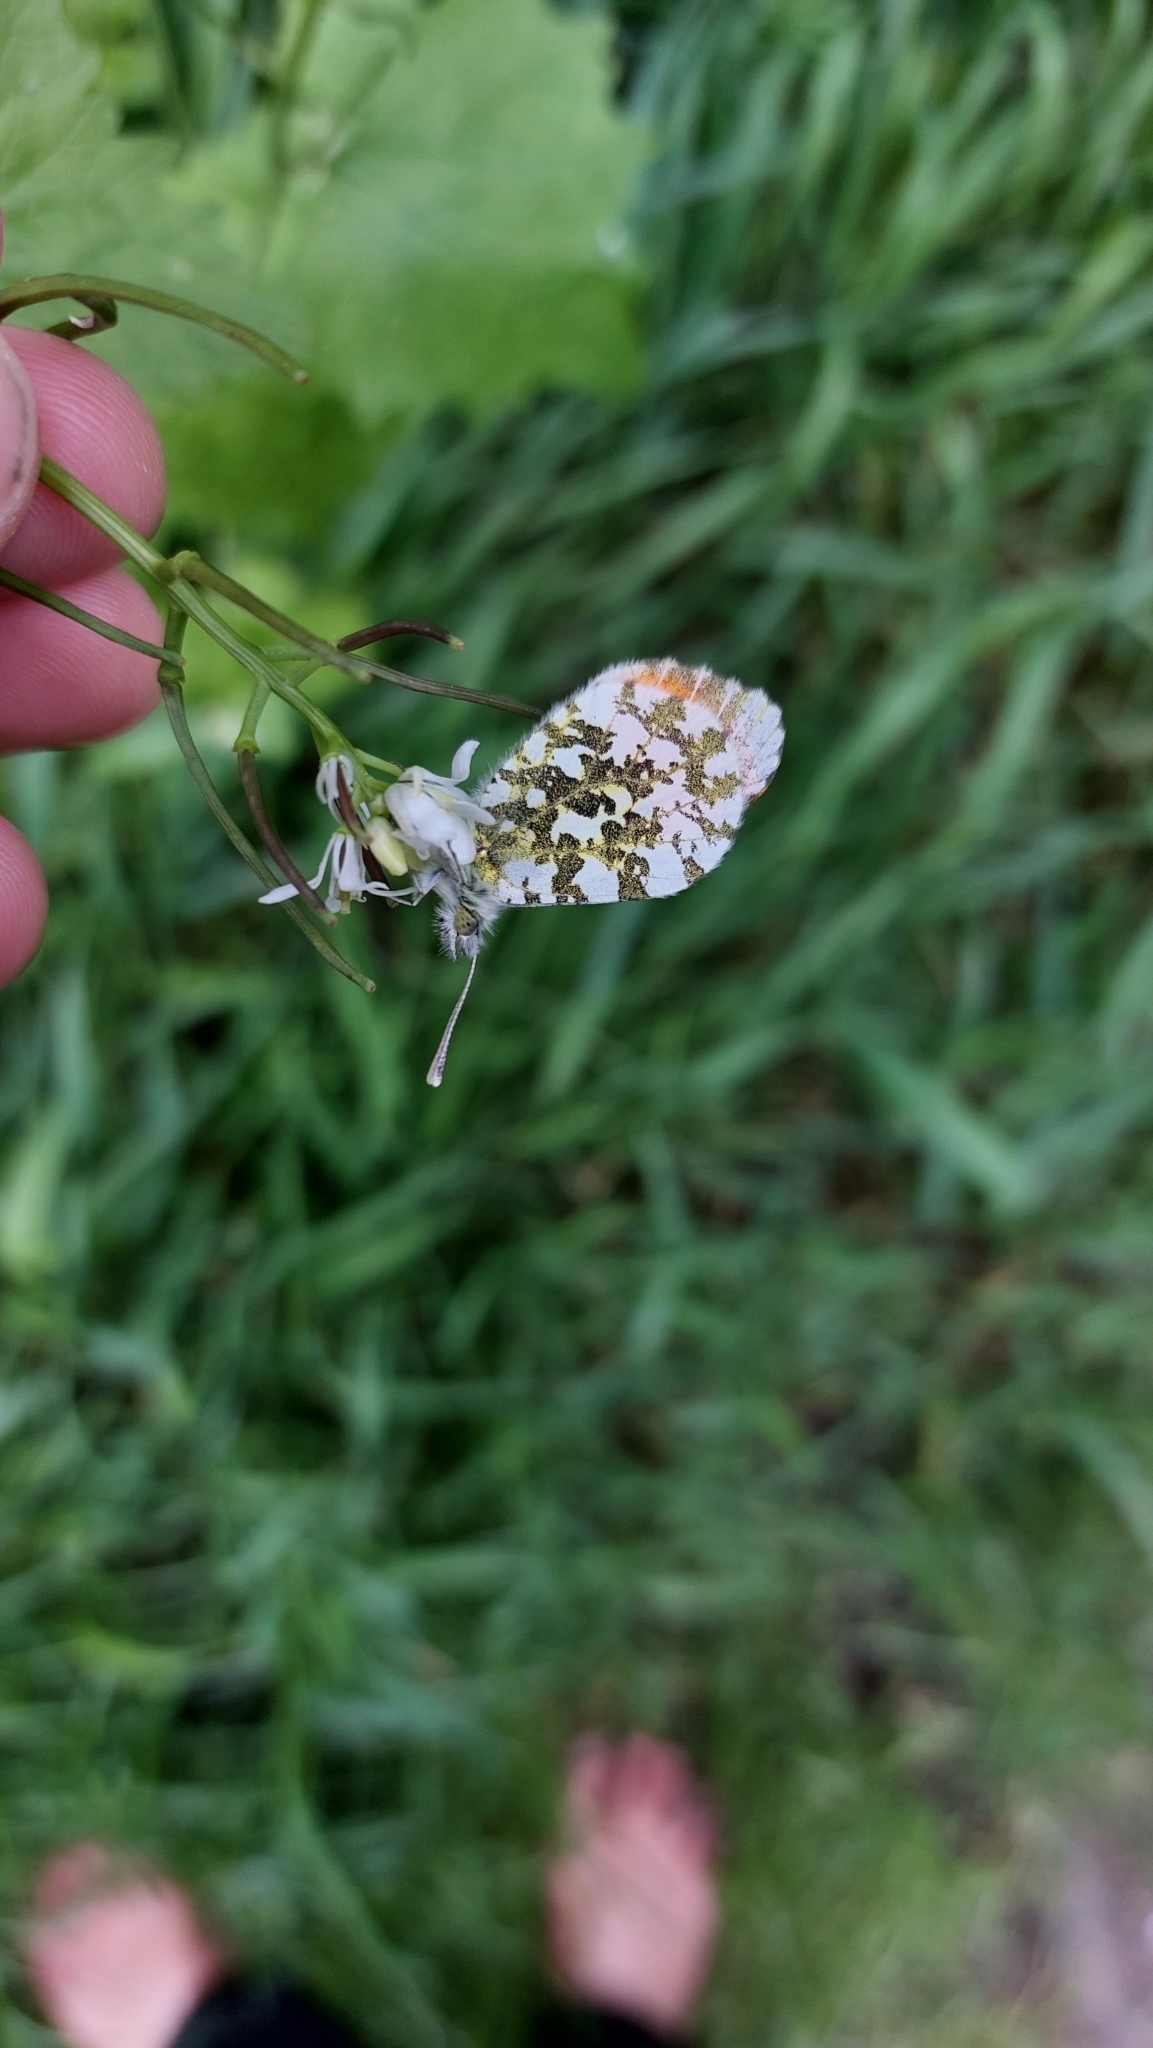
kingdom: Animalia
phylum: Arthropoda
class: Insecta
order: Lepidoptera
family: Pieridae
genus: Anthocharis
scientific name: Anthocharis cardamines
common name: Orange-tip
